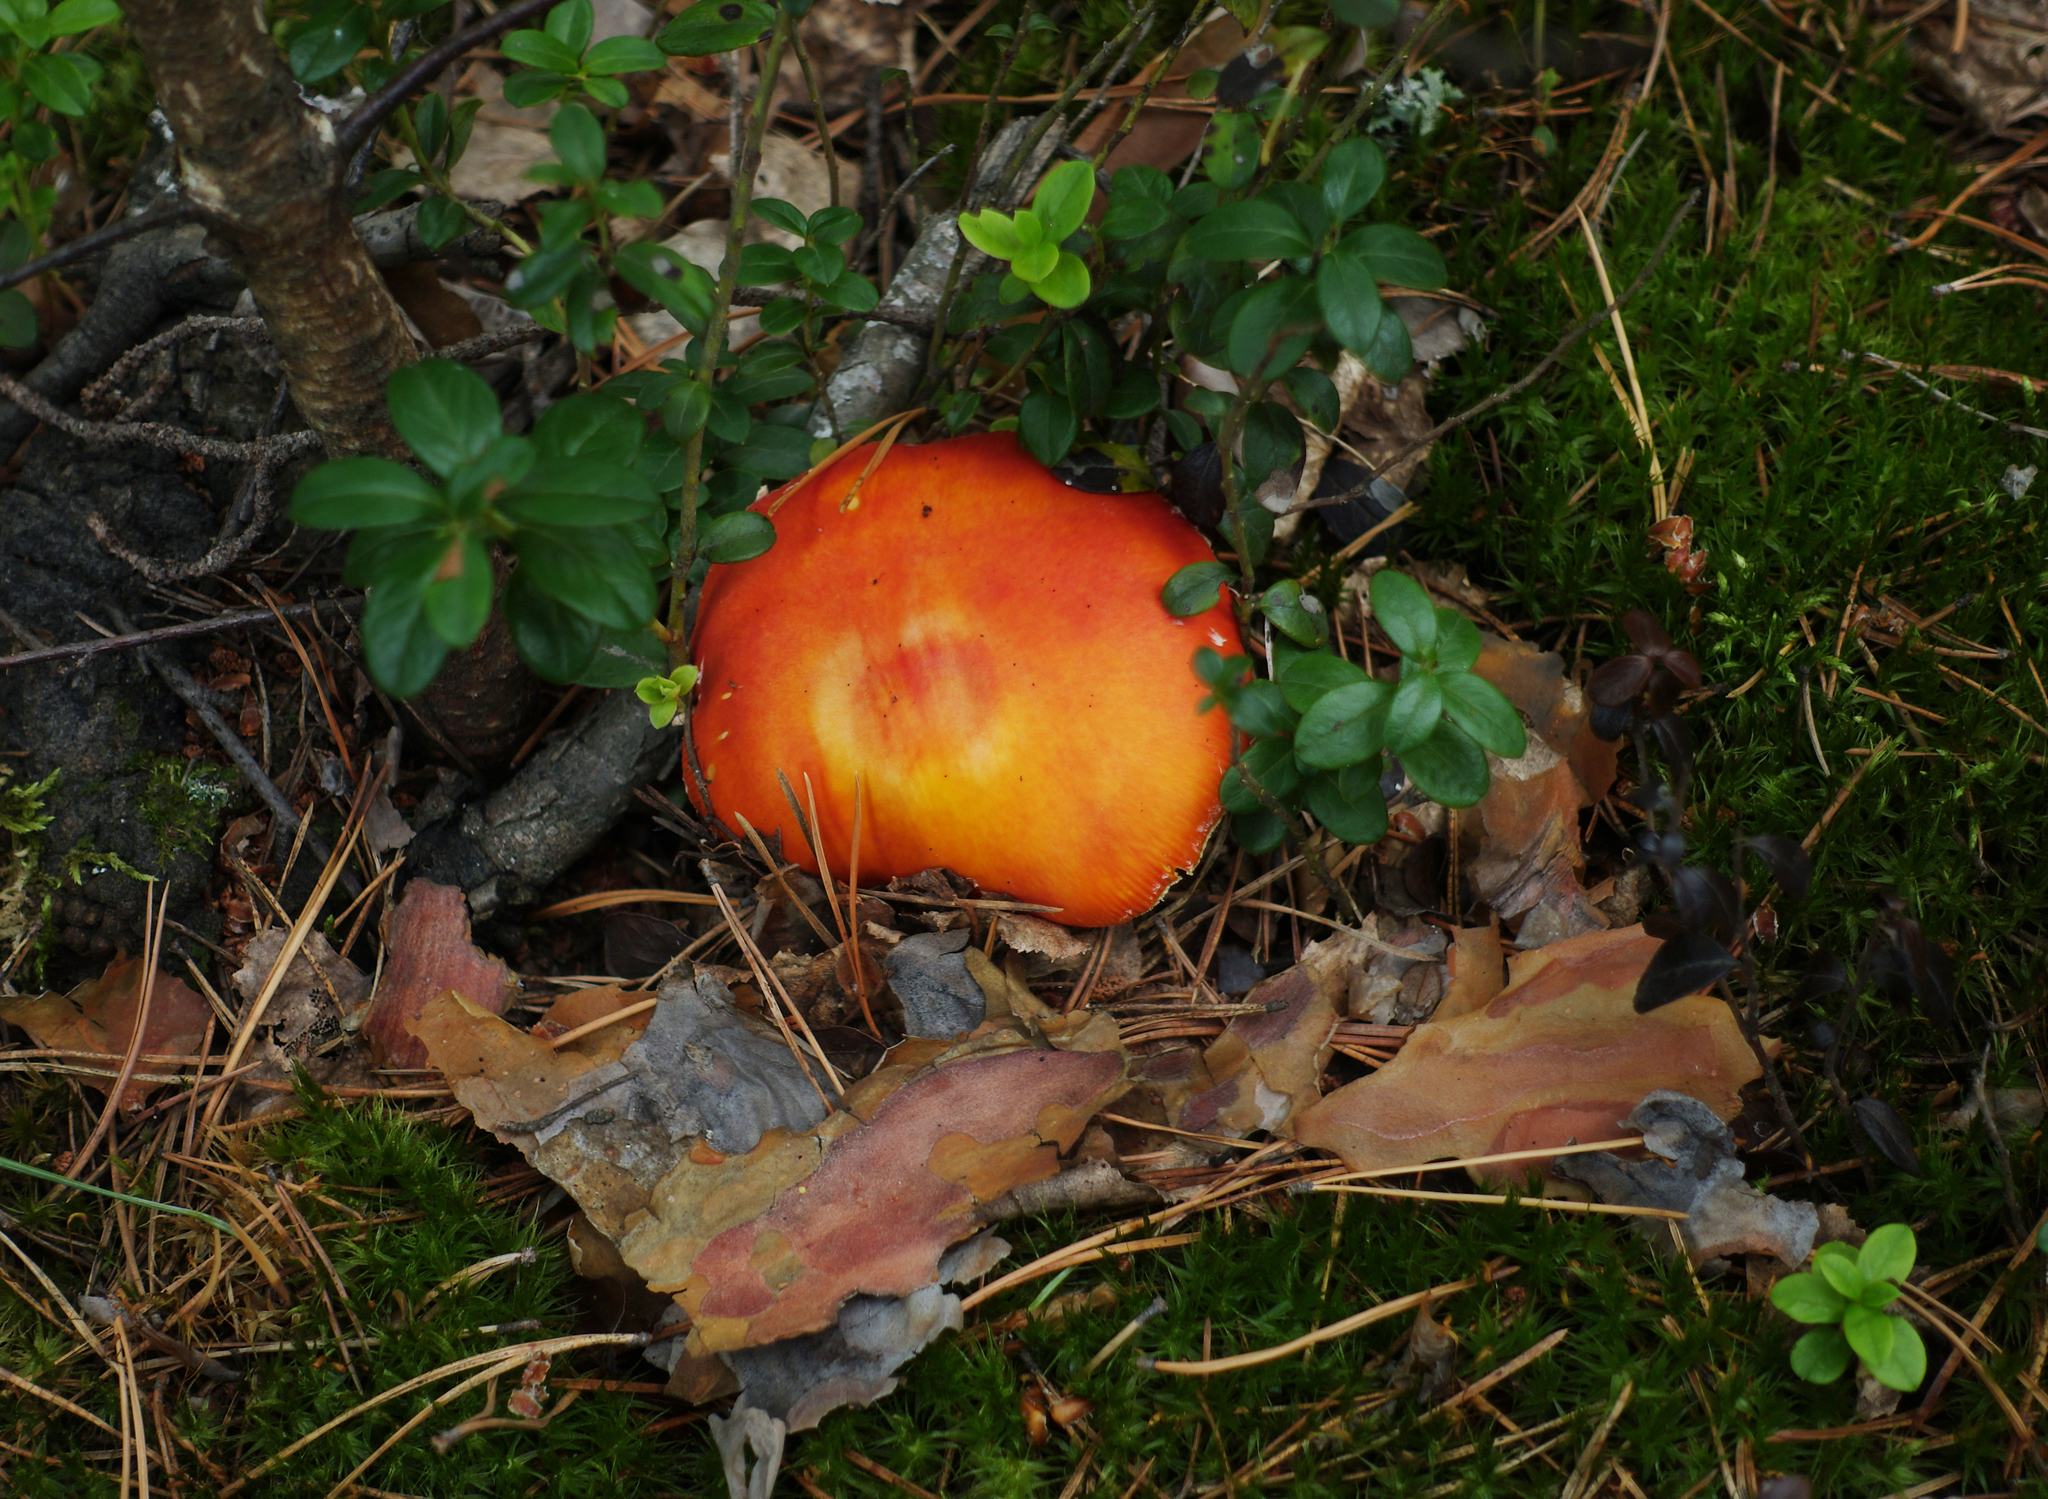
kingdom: Fungi
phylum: Basidiomycota
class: Agaricomycetes
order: Agaricales
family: Amanitaceae
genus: Amanita
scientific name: Amanita muscaria
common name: Fly agaric
